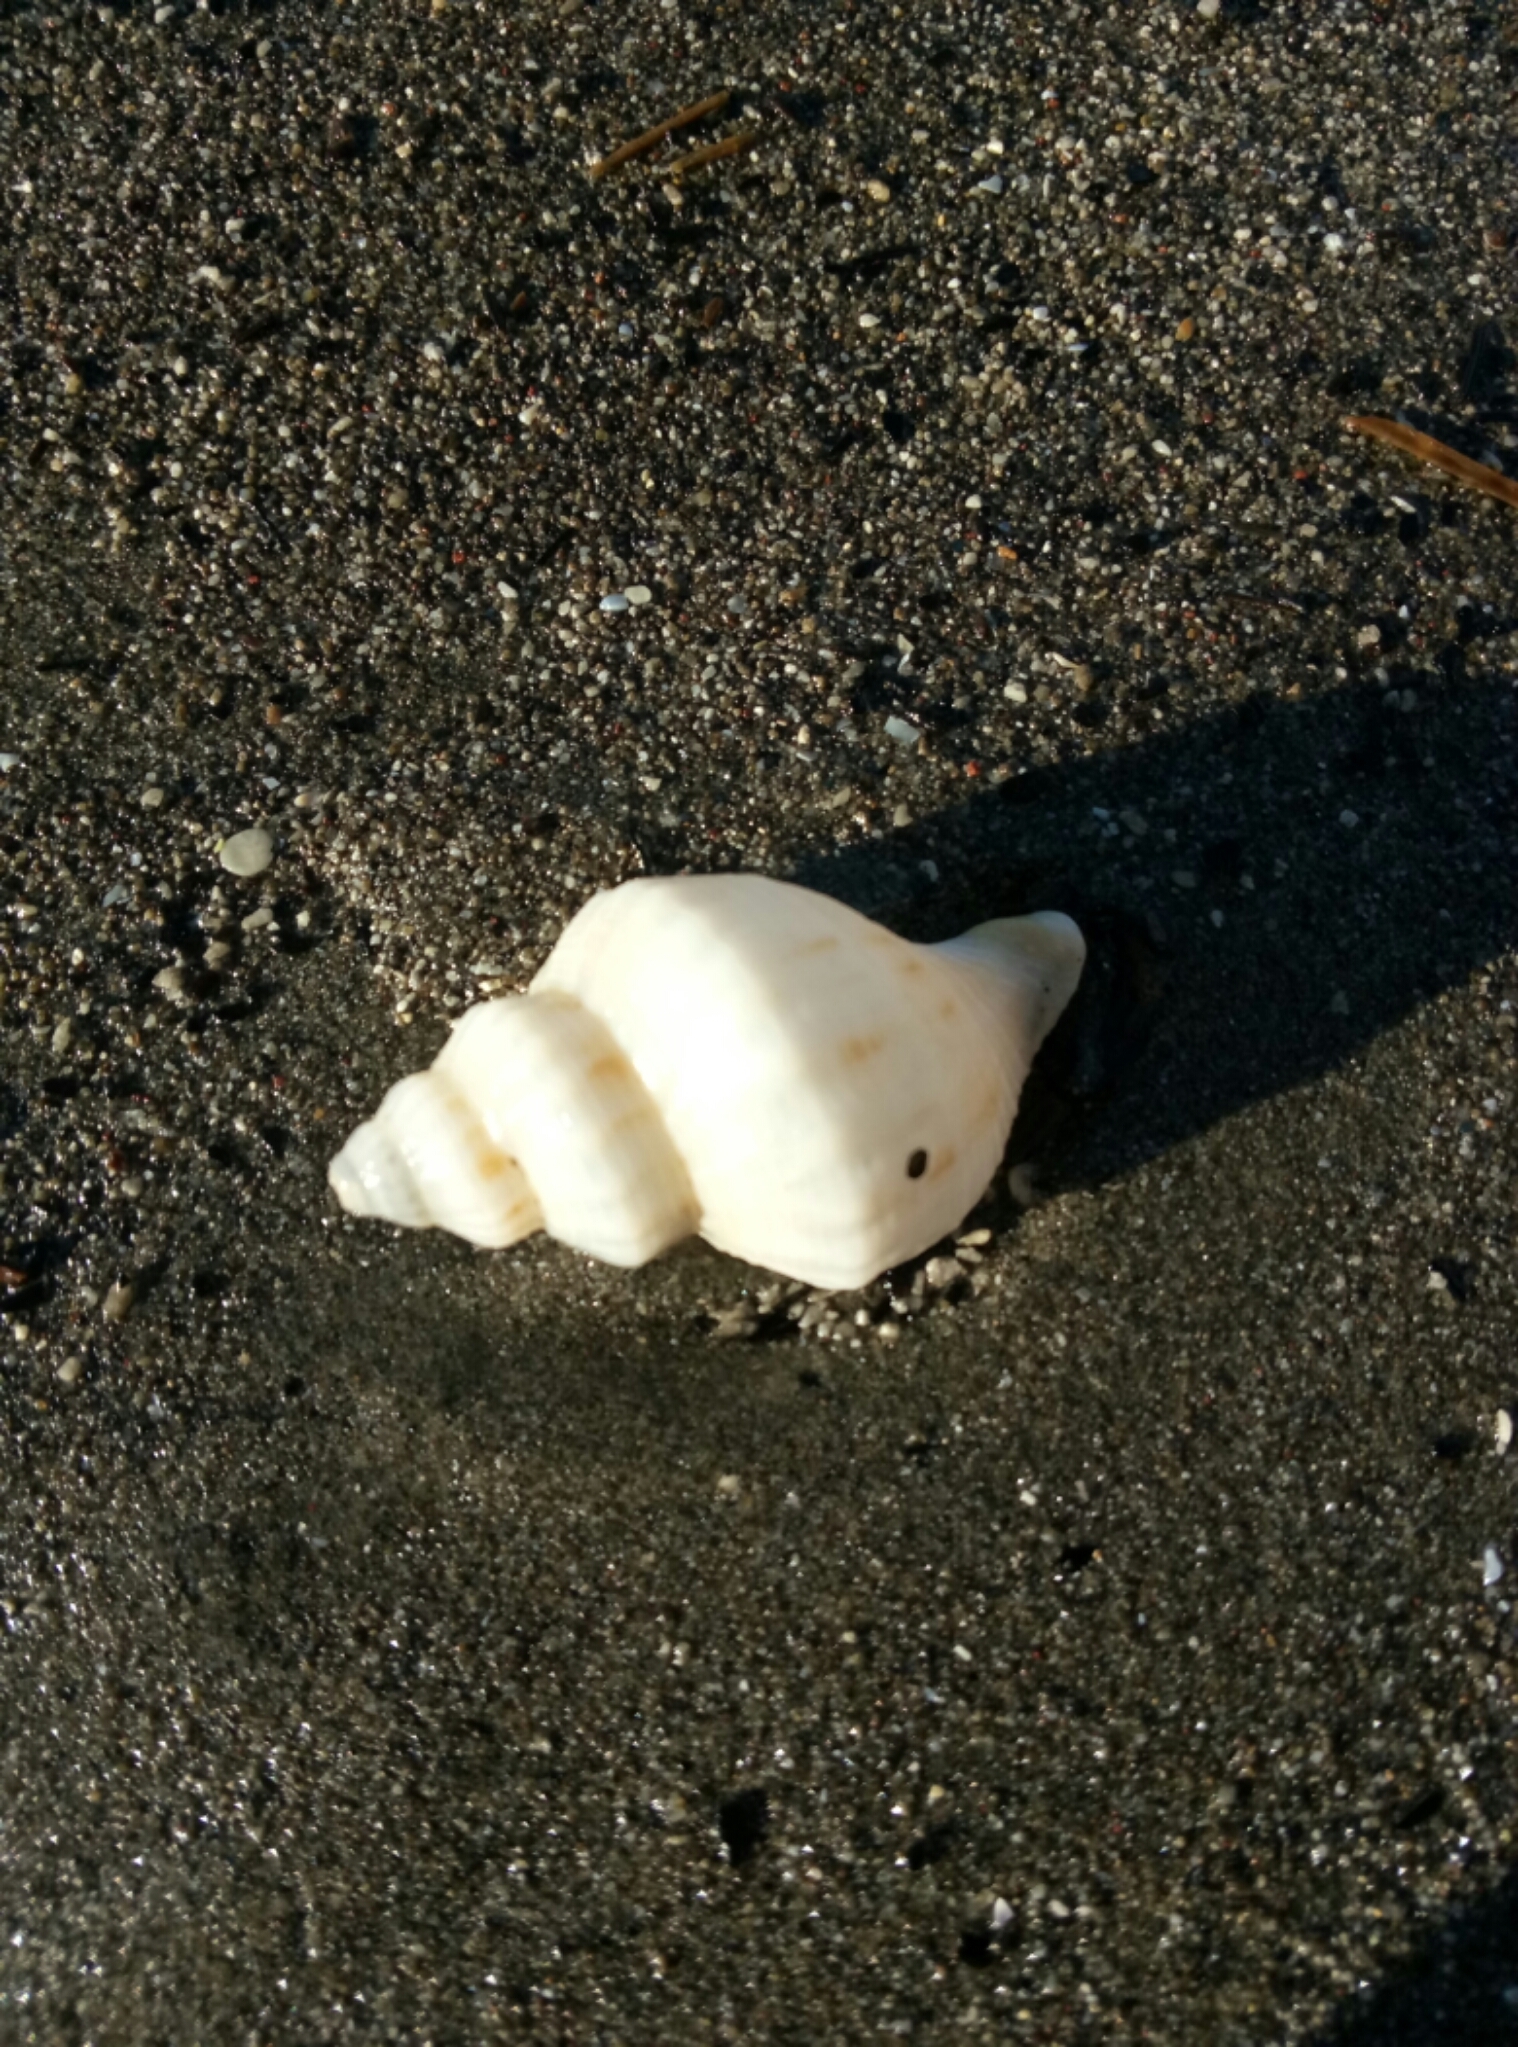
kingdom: Animalia
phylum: Mollusca
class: Gastropoda
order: Neogastropoda
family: Prosiphonidae
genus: Austrofusus
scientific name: Austrofusus glans
